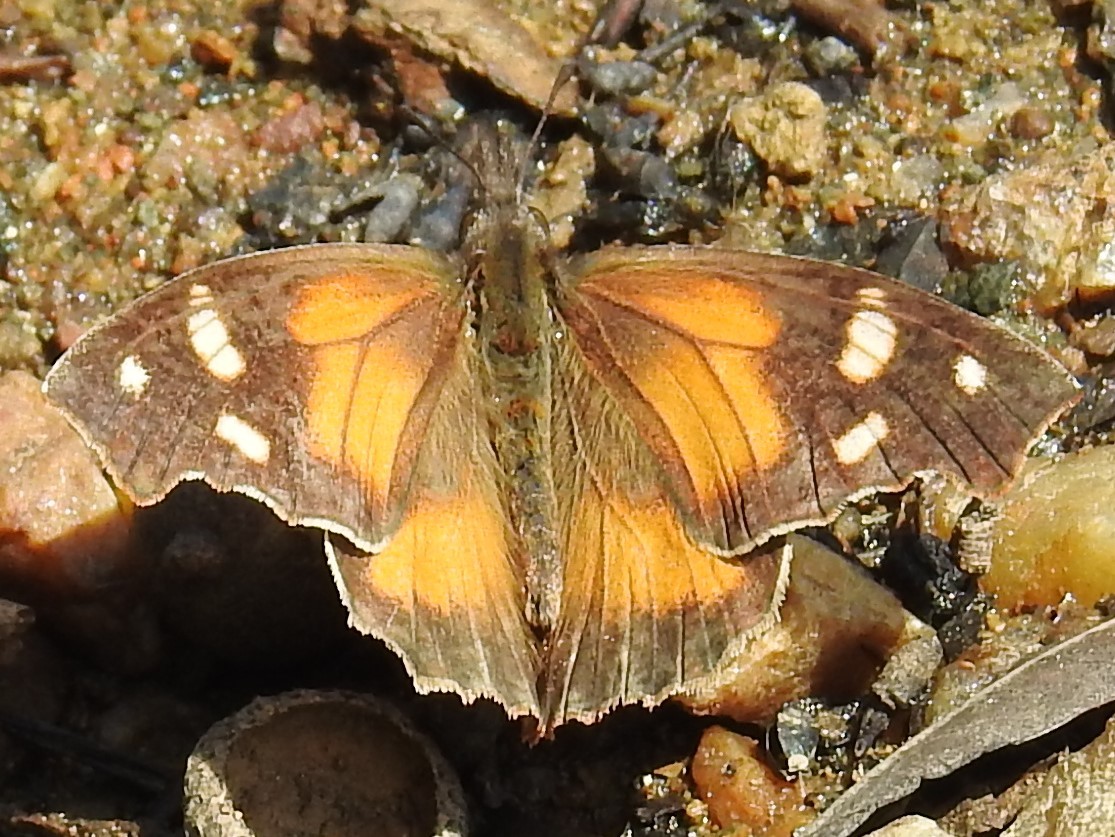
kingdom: Animalia
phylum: Arthropoda
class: Insecta
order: Lepidoptera
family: Nymphalidae
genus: Libytheana
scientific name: Libytheana carinenta
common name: American snout
